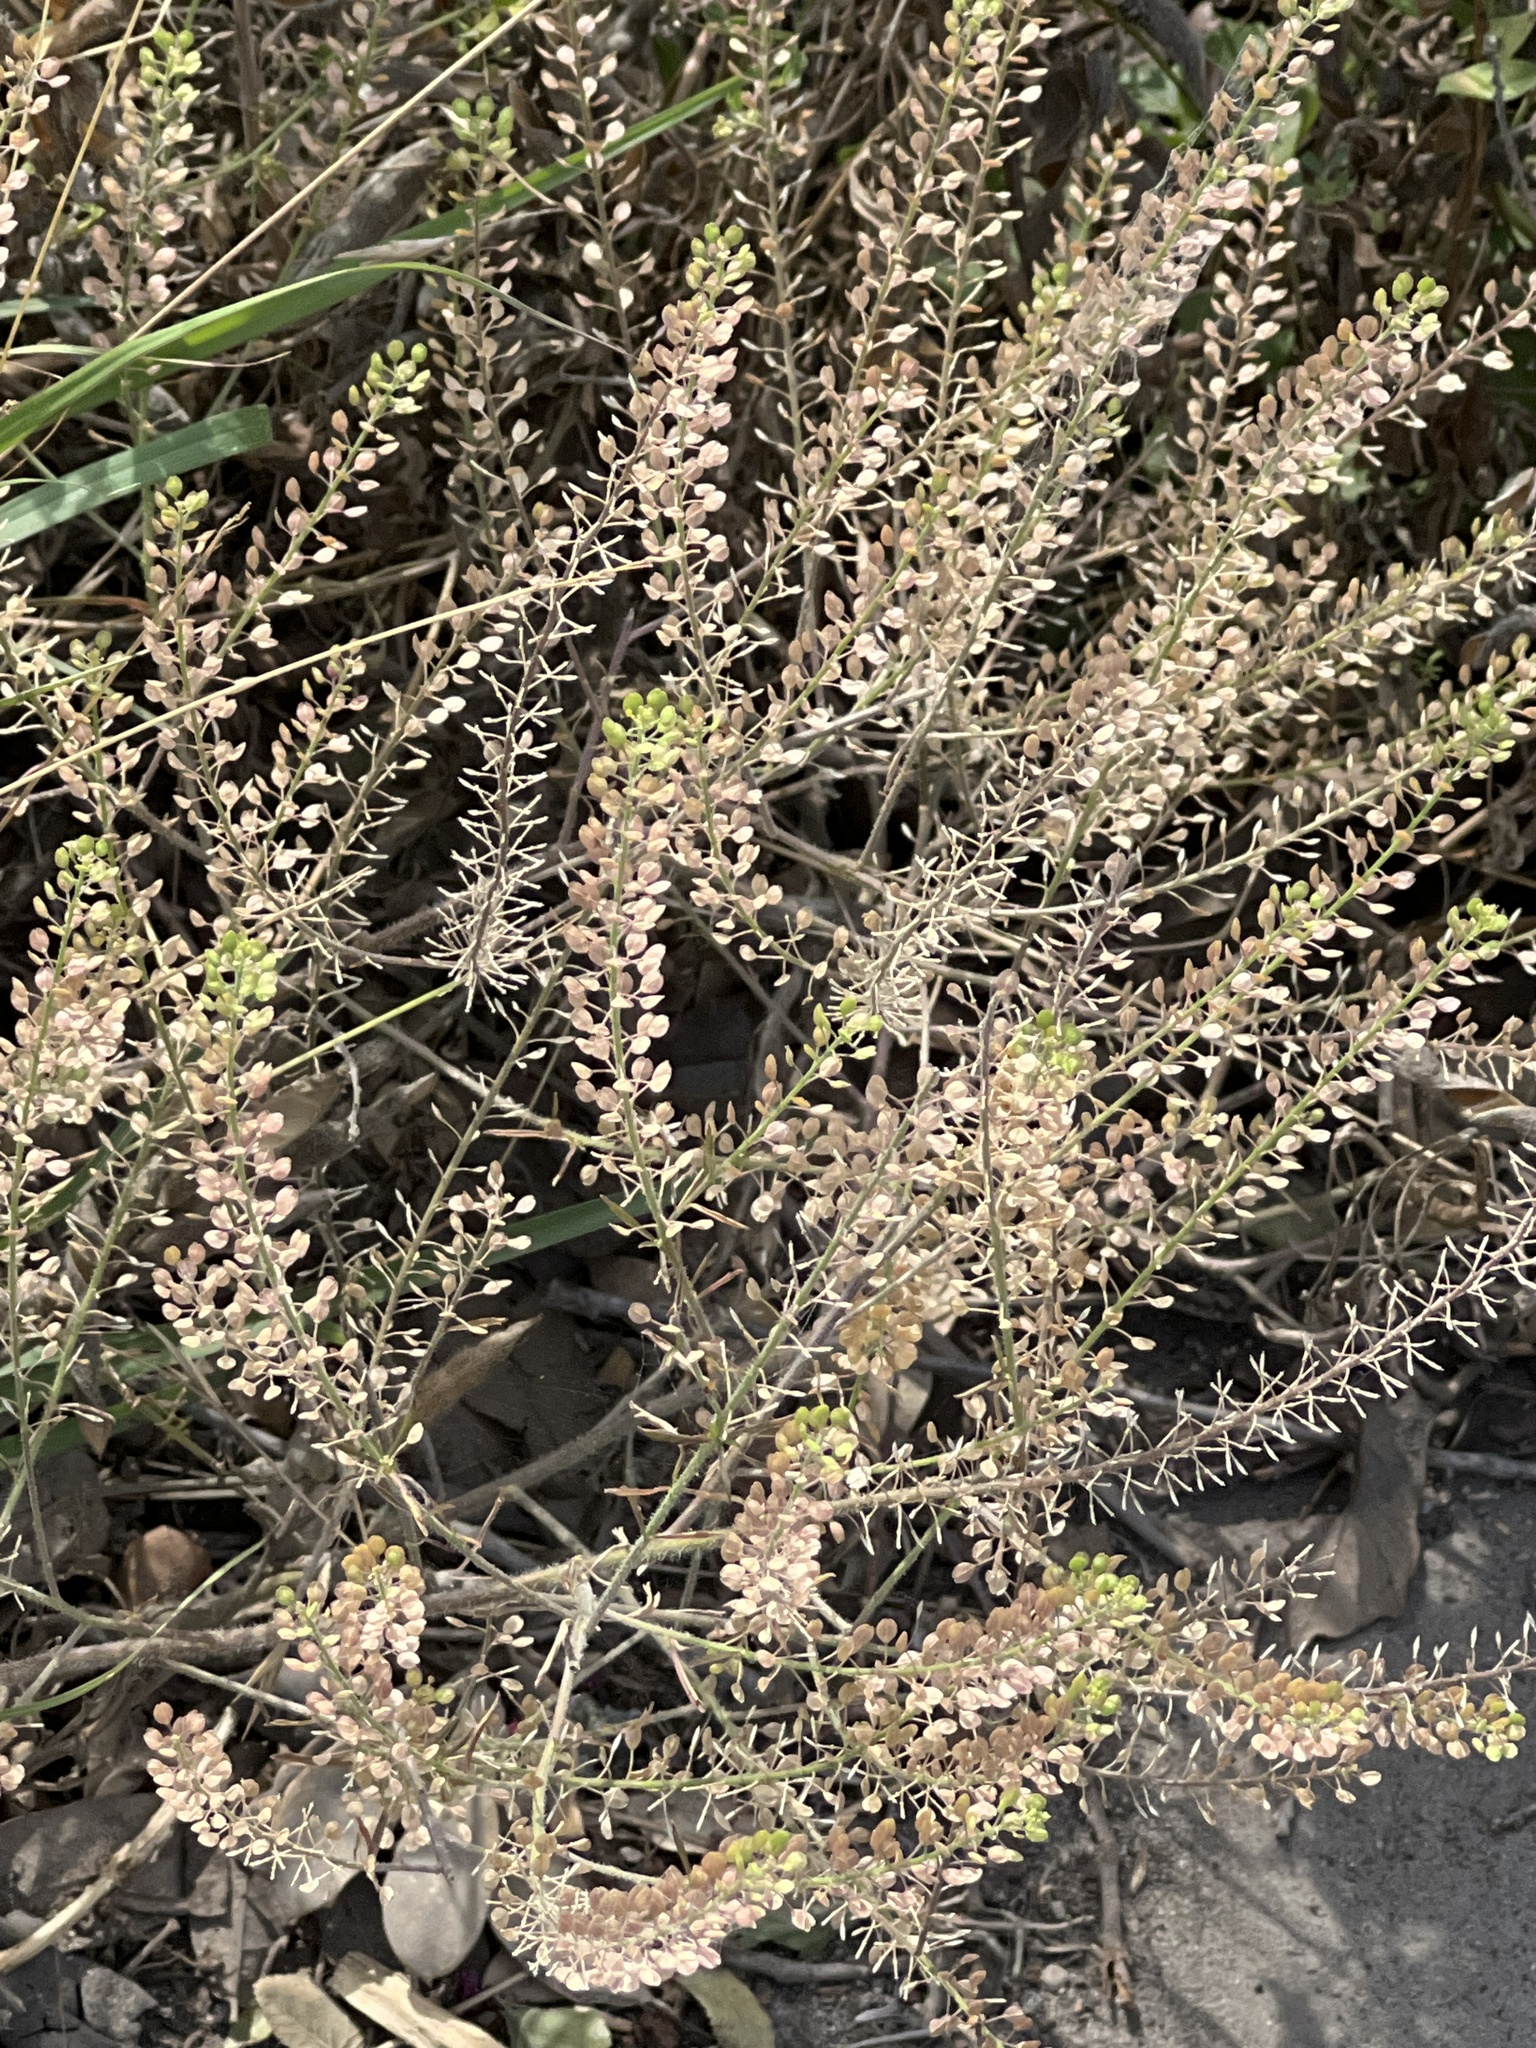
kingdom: Plantae
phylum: Tracheophyta
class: Magnoliopsida
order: Brassicales
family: Brassicaceae
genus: Lepidium
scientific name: Lepidium virginicum
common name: Least pepperwort
